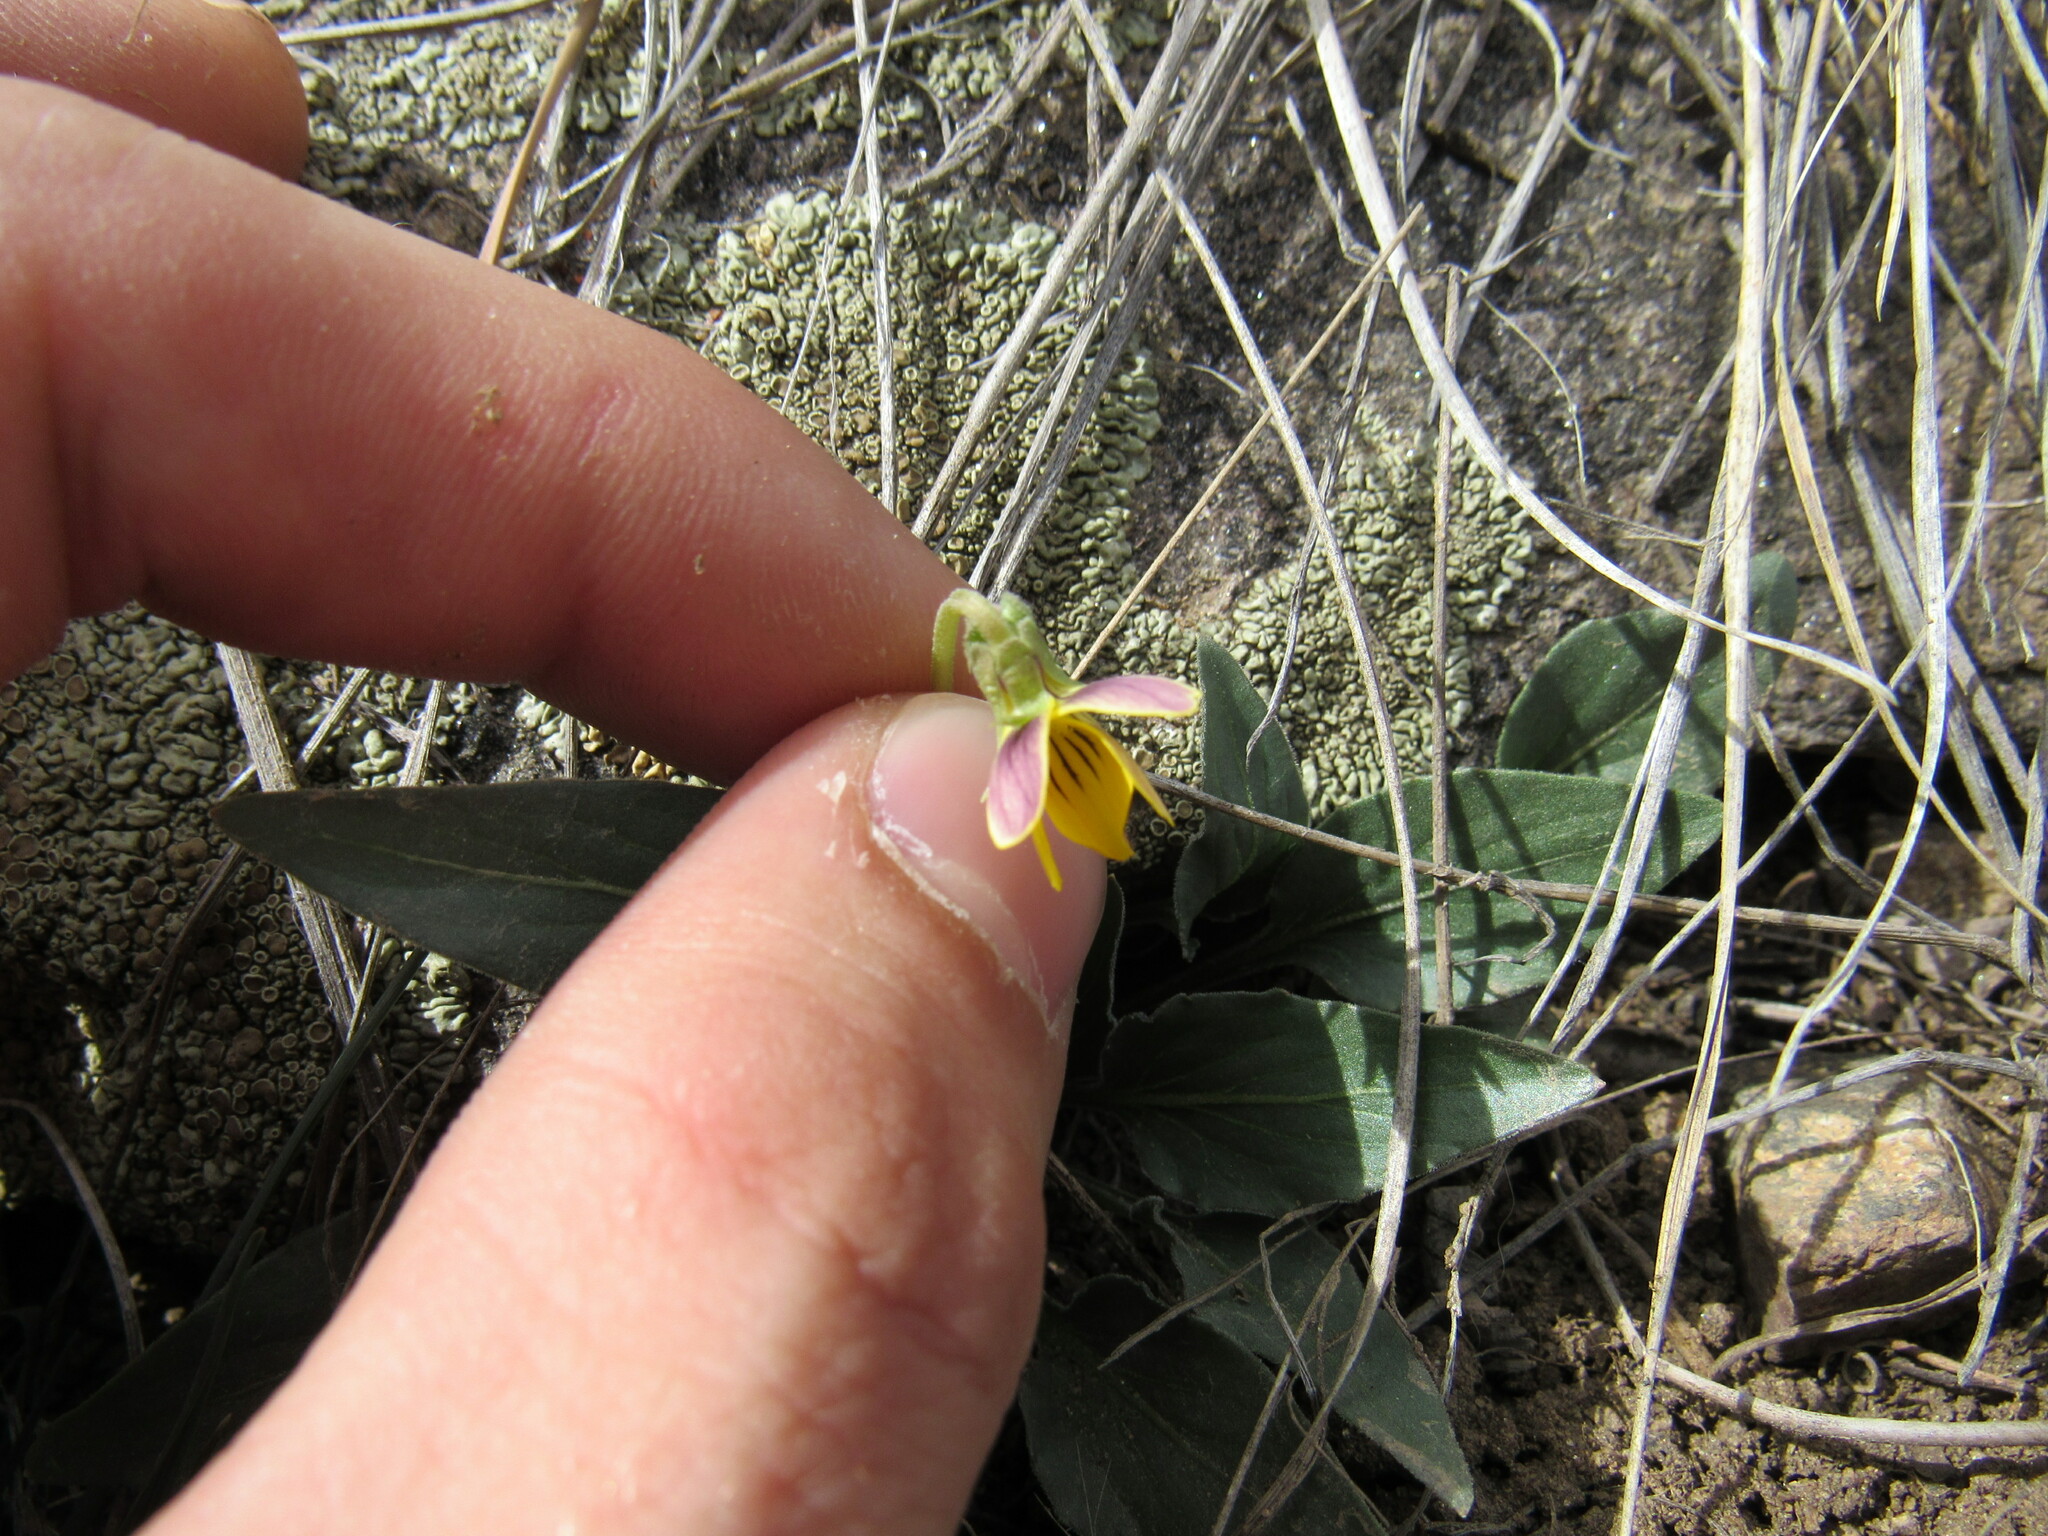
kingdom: Plantae
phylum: Tracheophyta
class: Magnoliopsida
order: Malpighiales
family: Violaceae
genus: Viola
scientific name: Viola nuttallii
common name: Yellow prairie violet
